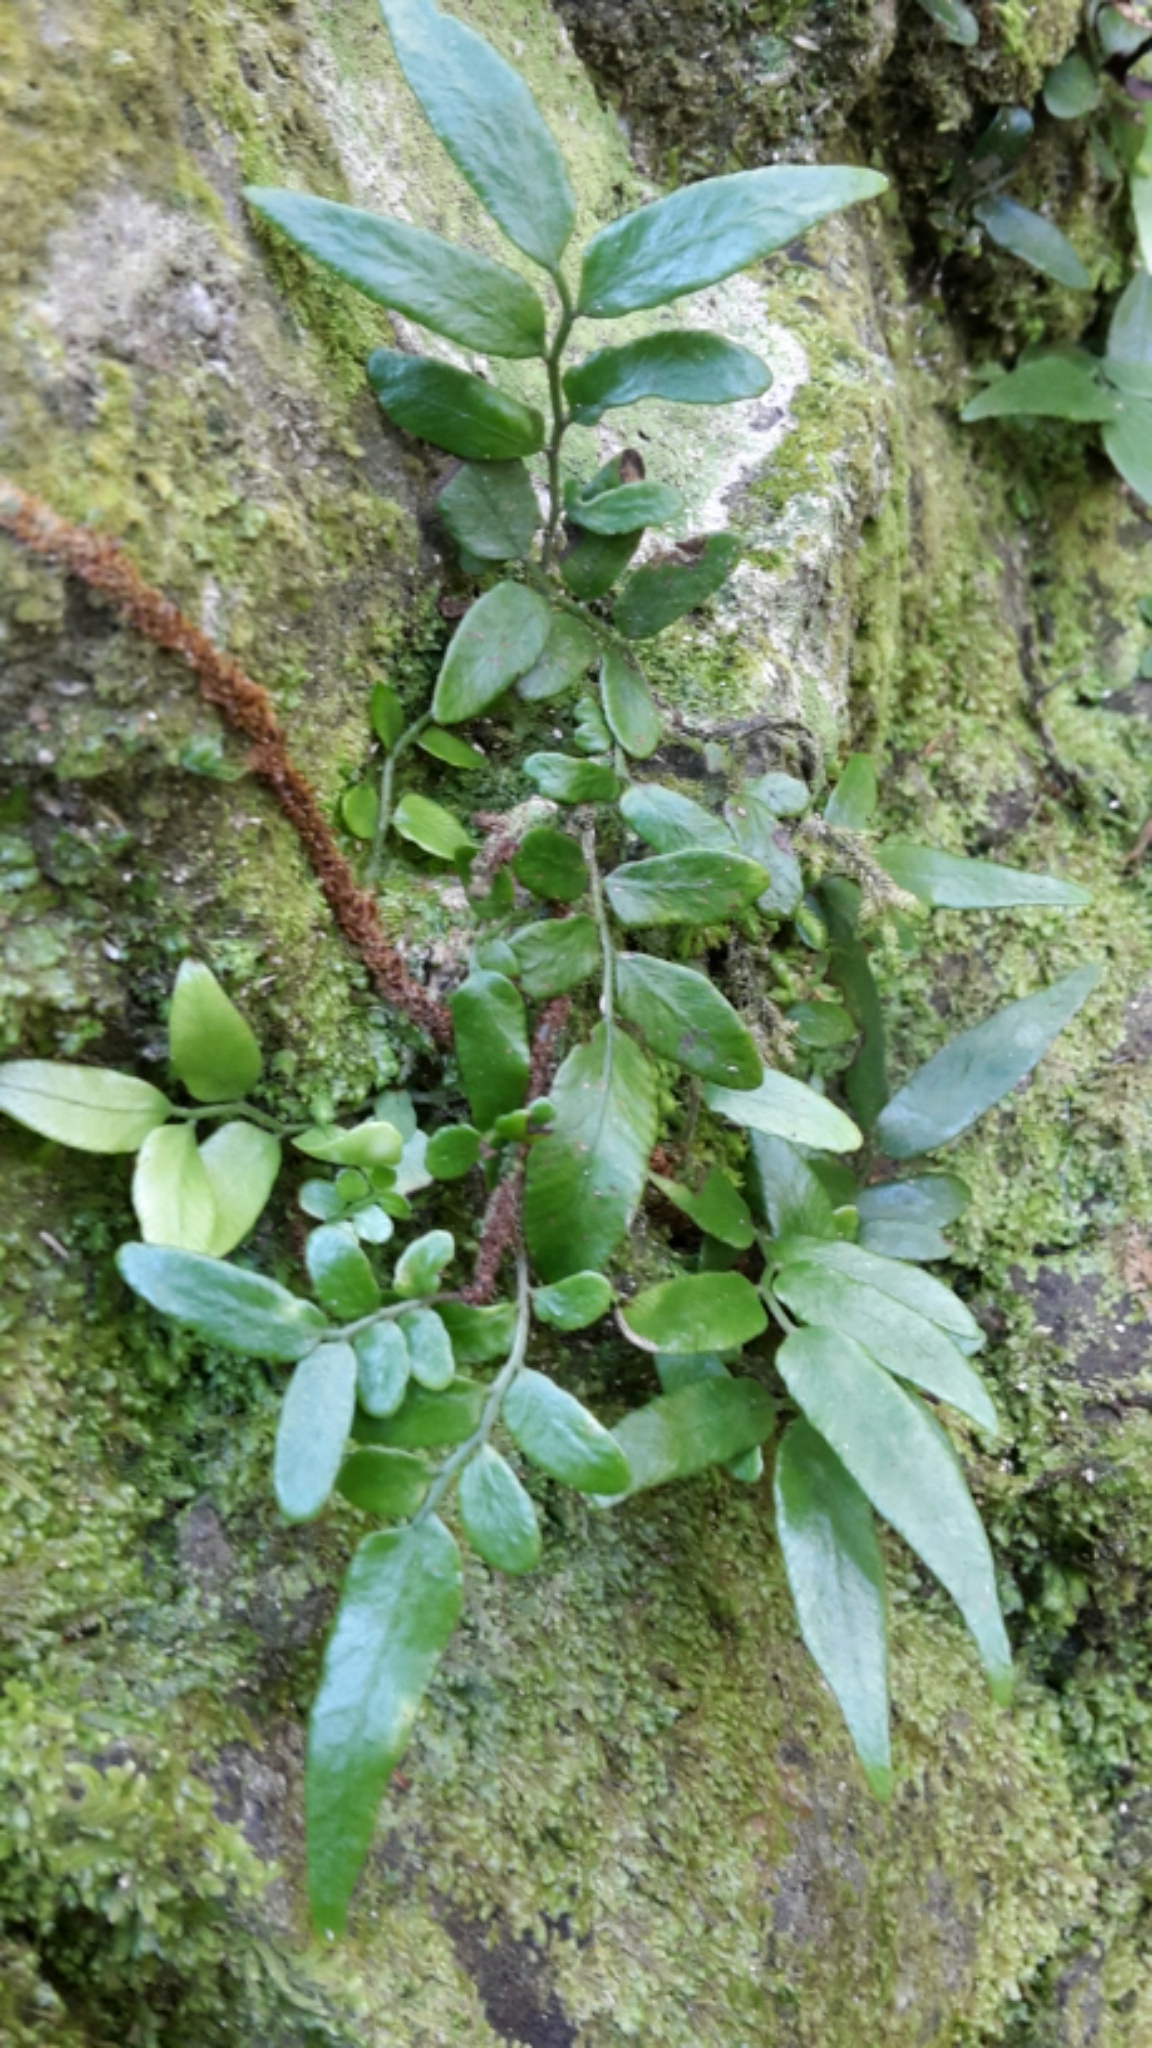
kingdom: Plantae
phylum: Tracheophyta
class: Polypodiopsida
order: Polypodiales
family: Tectariaceae
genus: Arthropteris
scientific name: Arthropteris tenella
